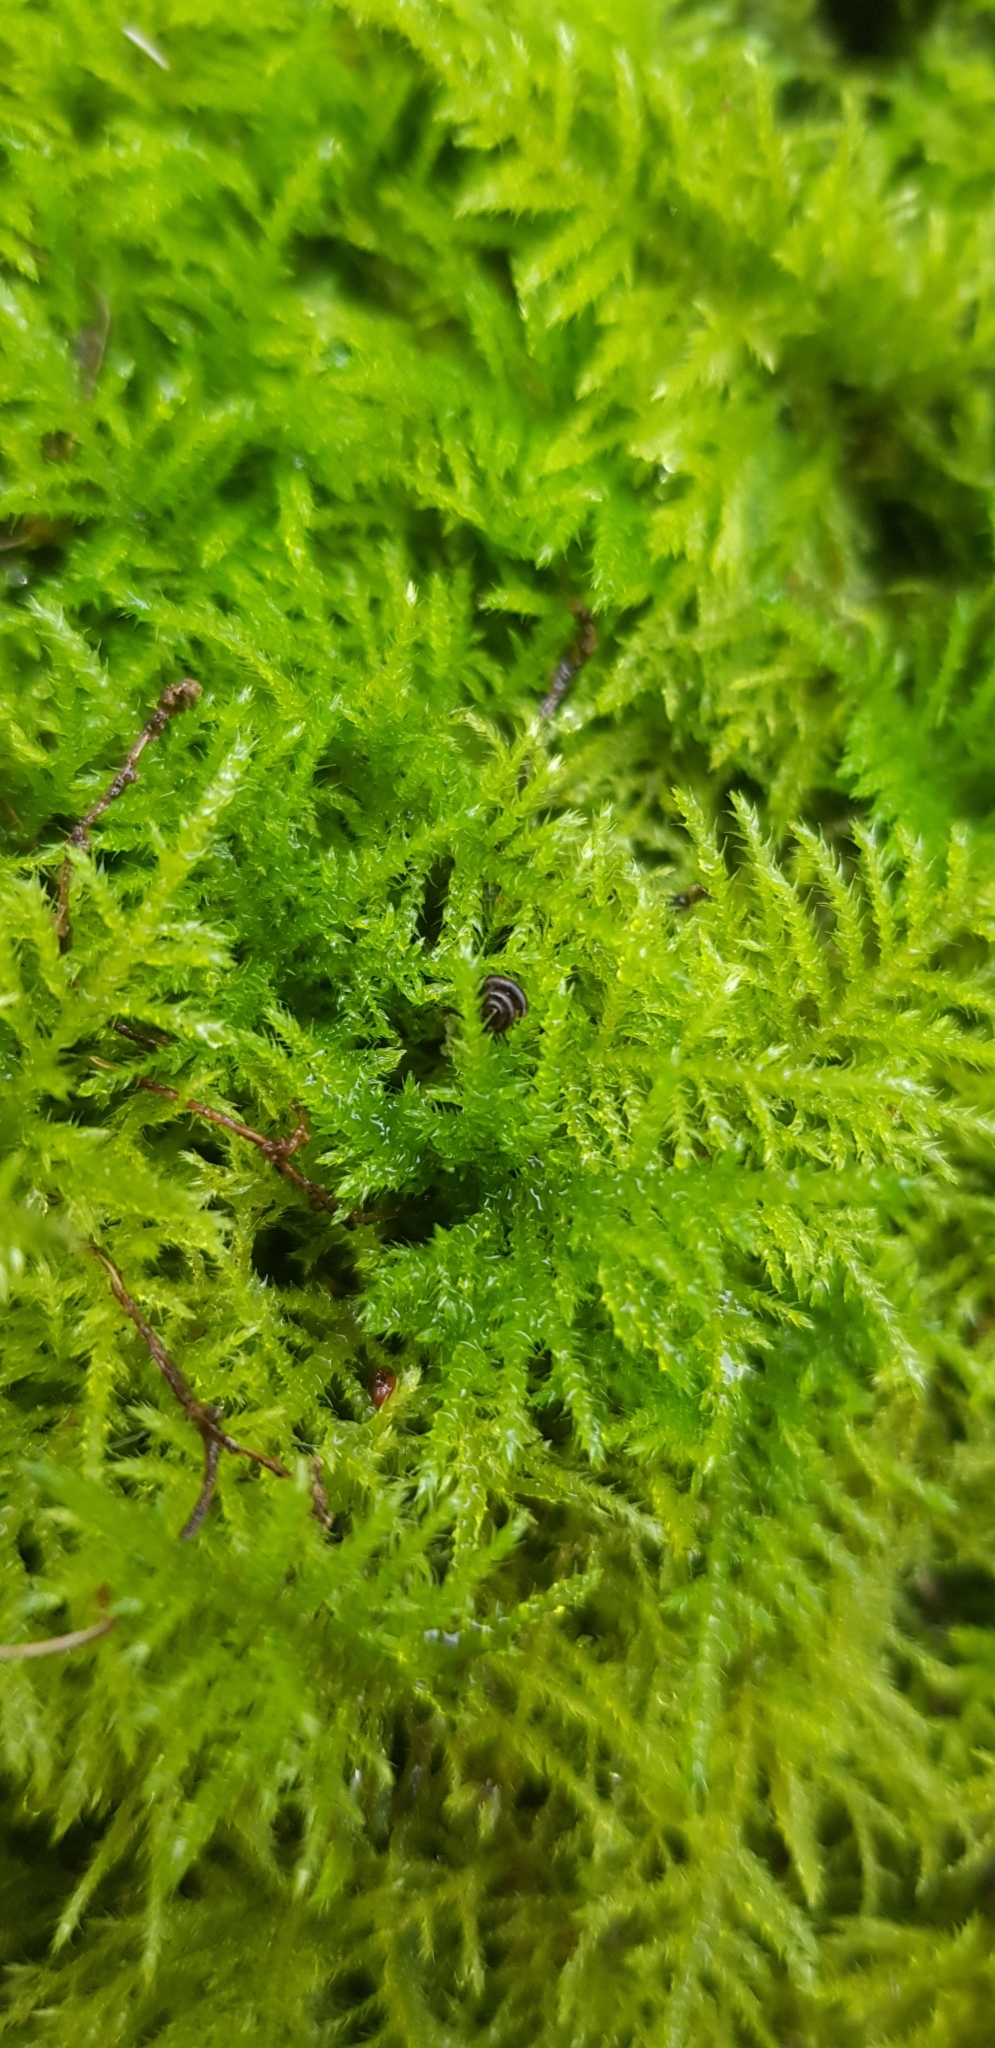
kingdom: Plantae
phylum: Bryophyta
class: Bryopsida
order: Hypnales
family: Brachytheciaceae
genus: Kindbergia
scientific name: Kindbergia praelonga
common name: Slender beaked moss
